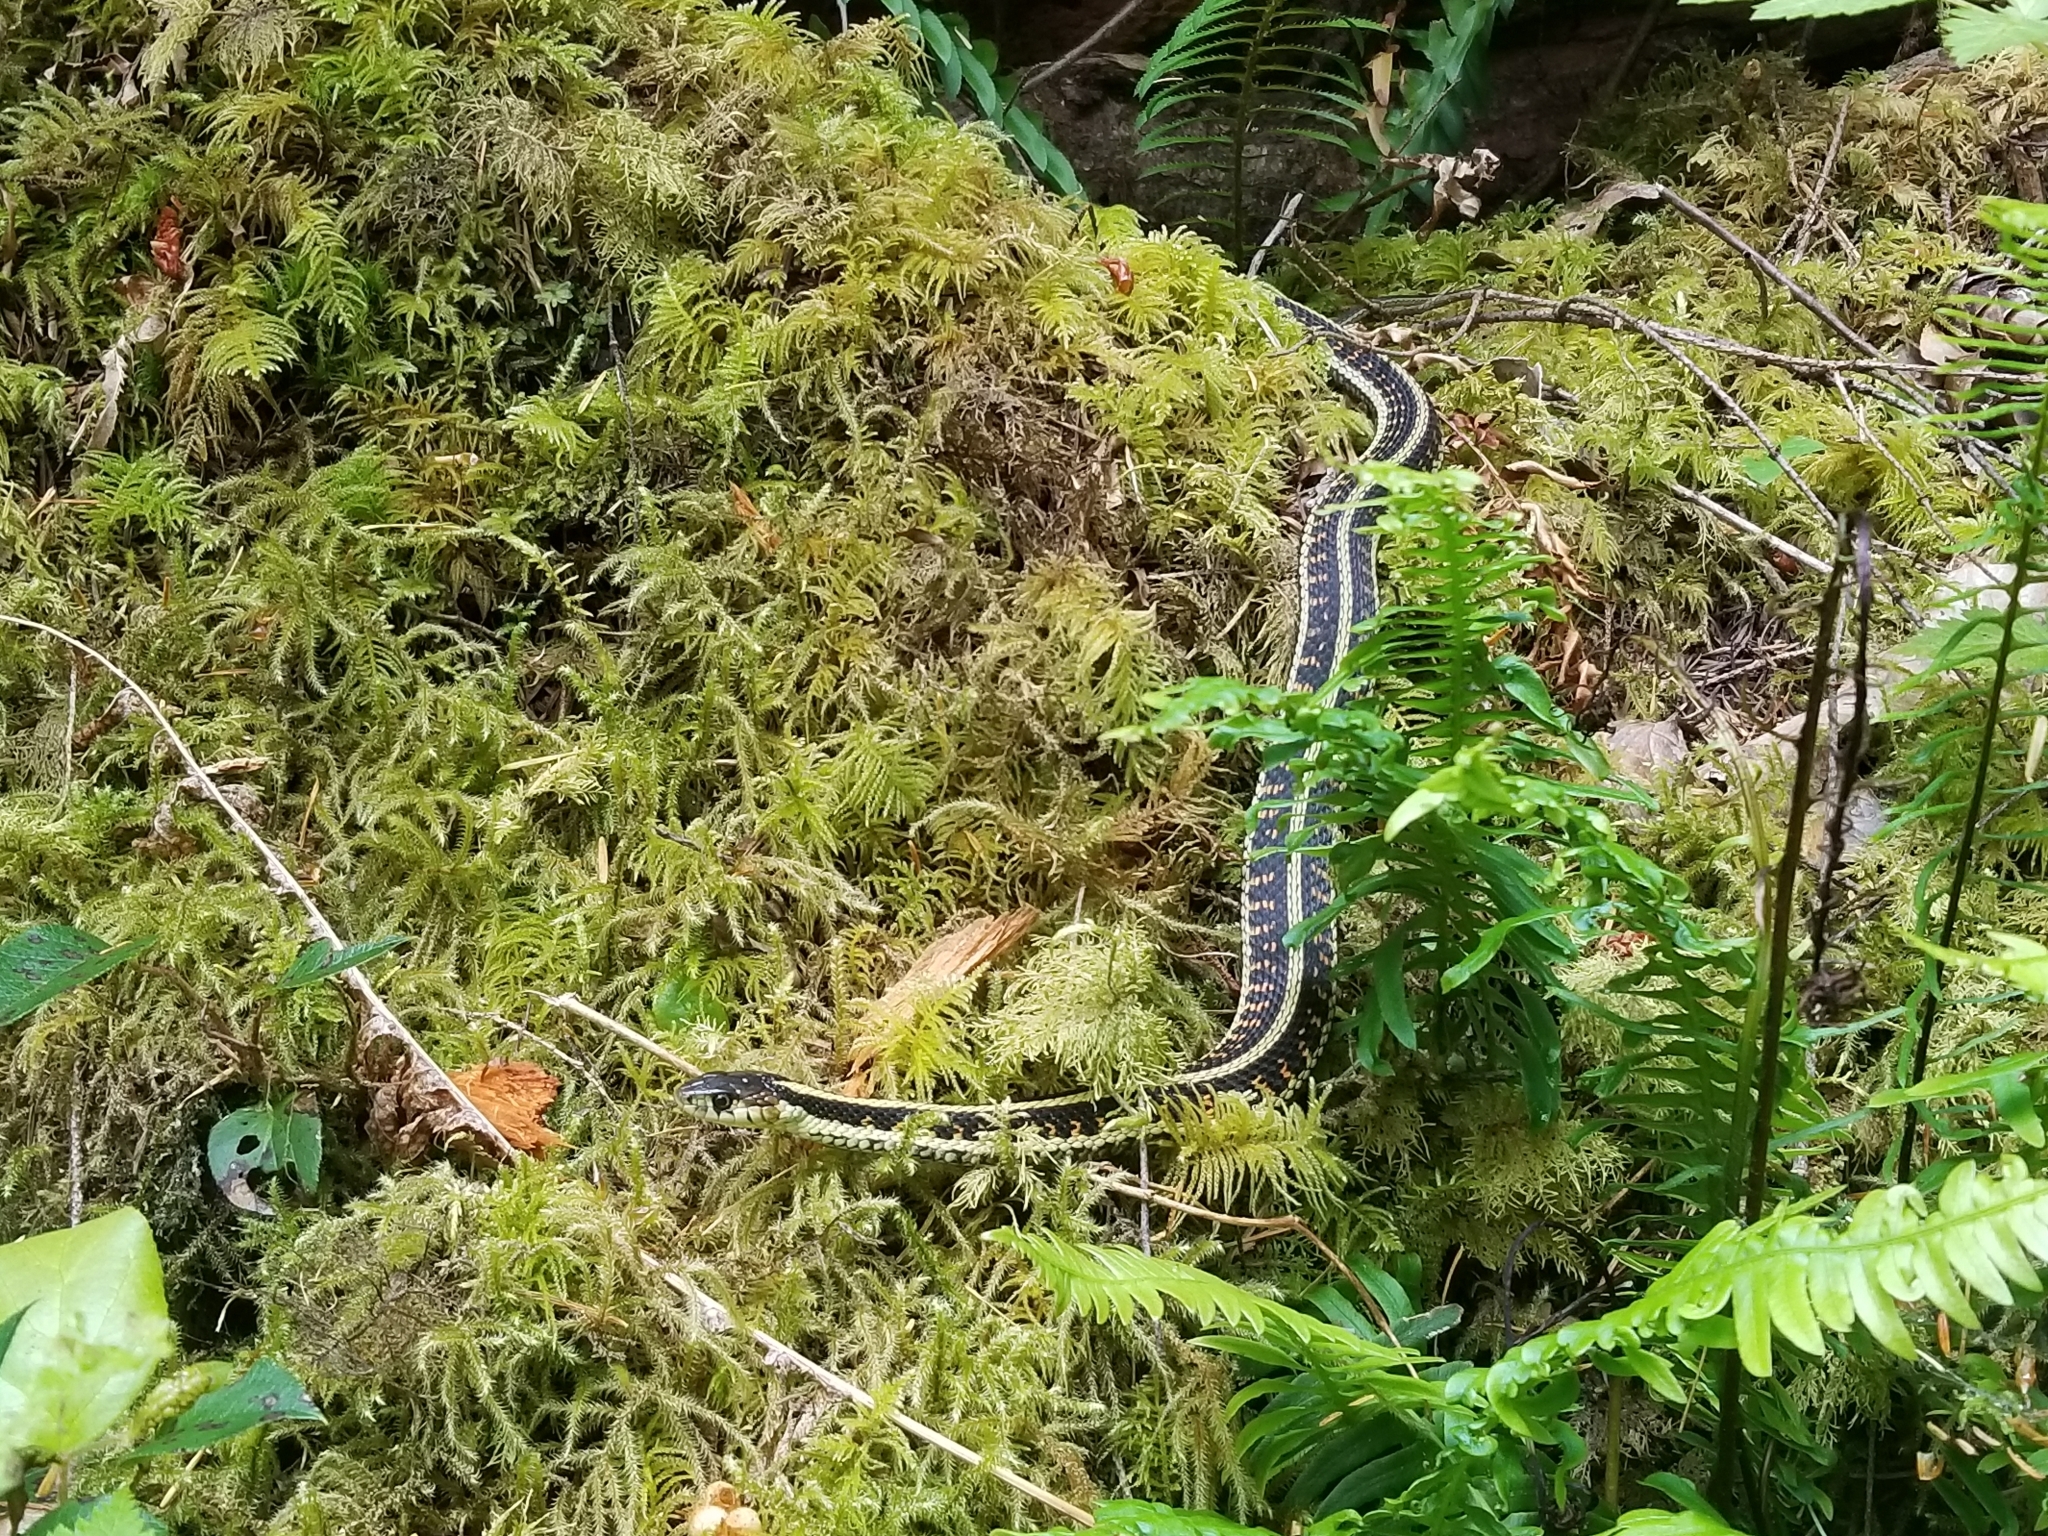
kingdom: Animalia
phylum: Chordata
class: Squamata
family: Colubridae
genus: Thamnophis
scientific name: Thamnophis sirtalis
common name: Common garter snake
